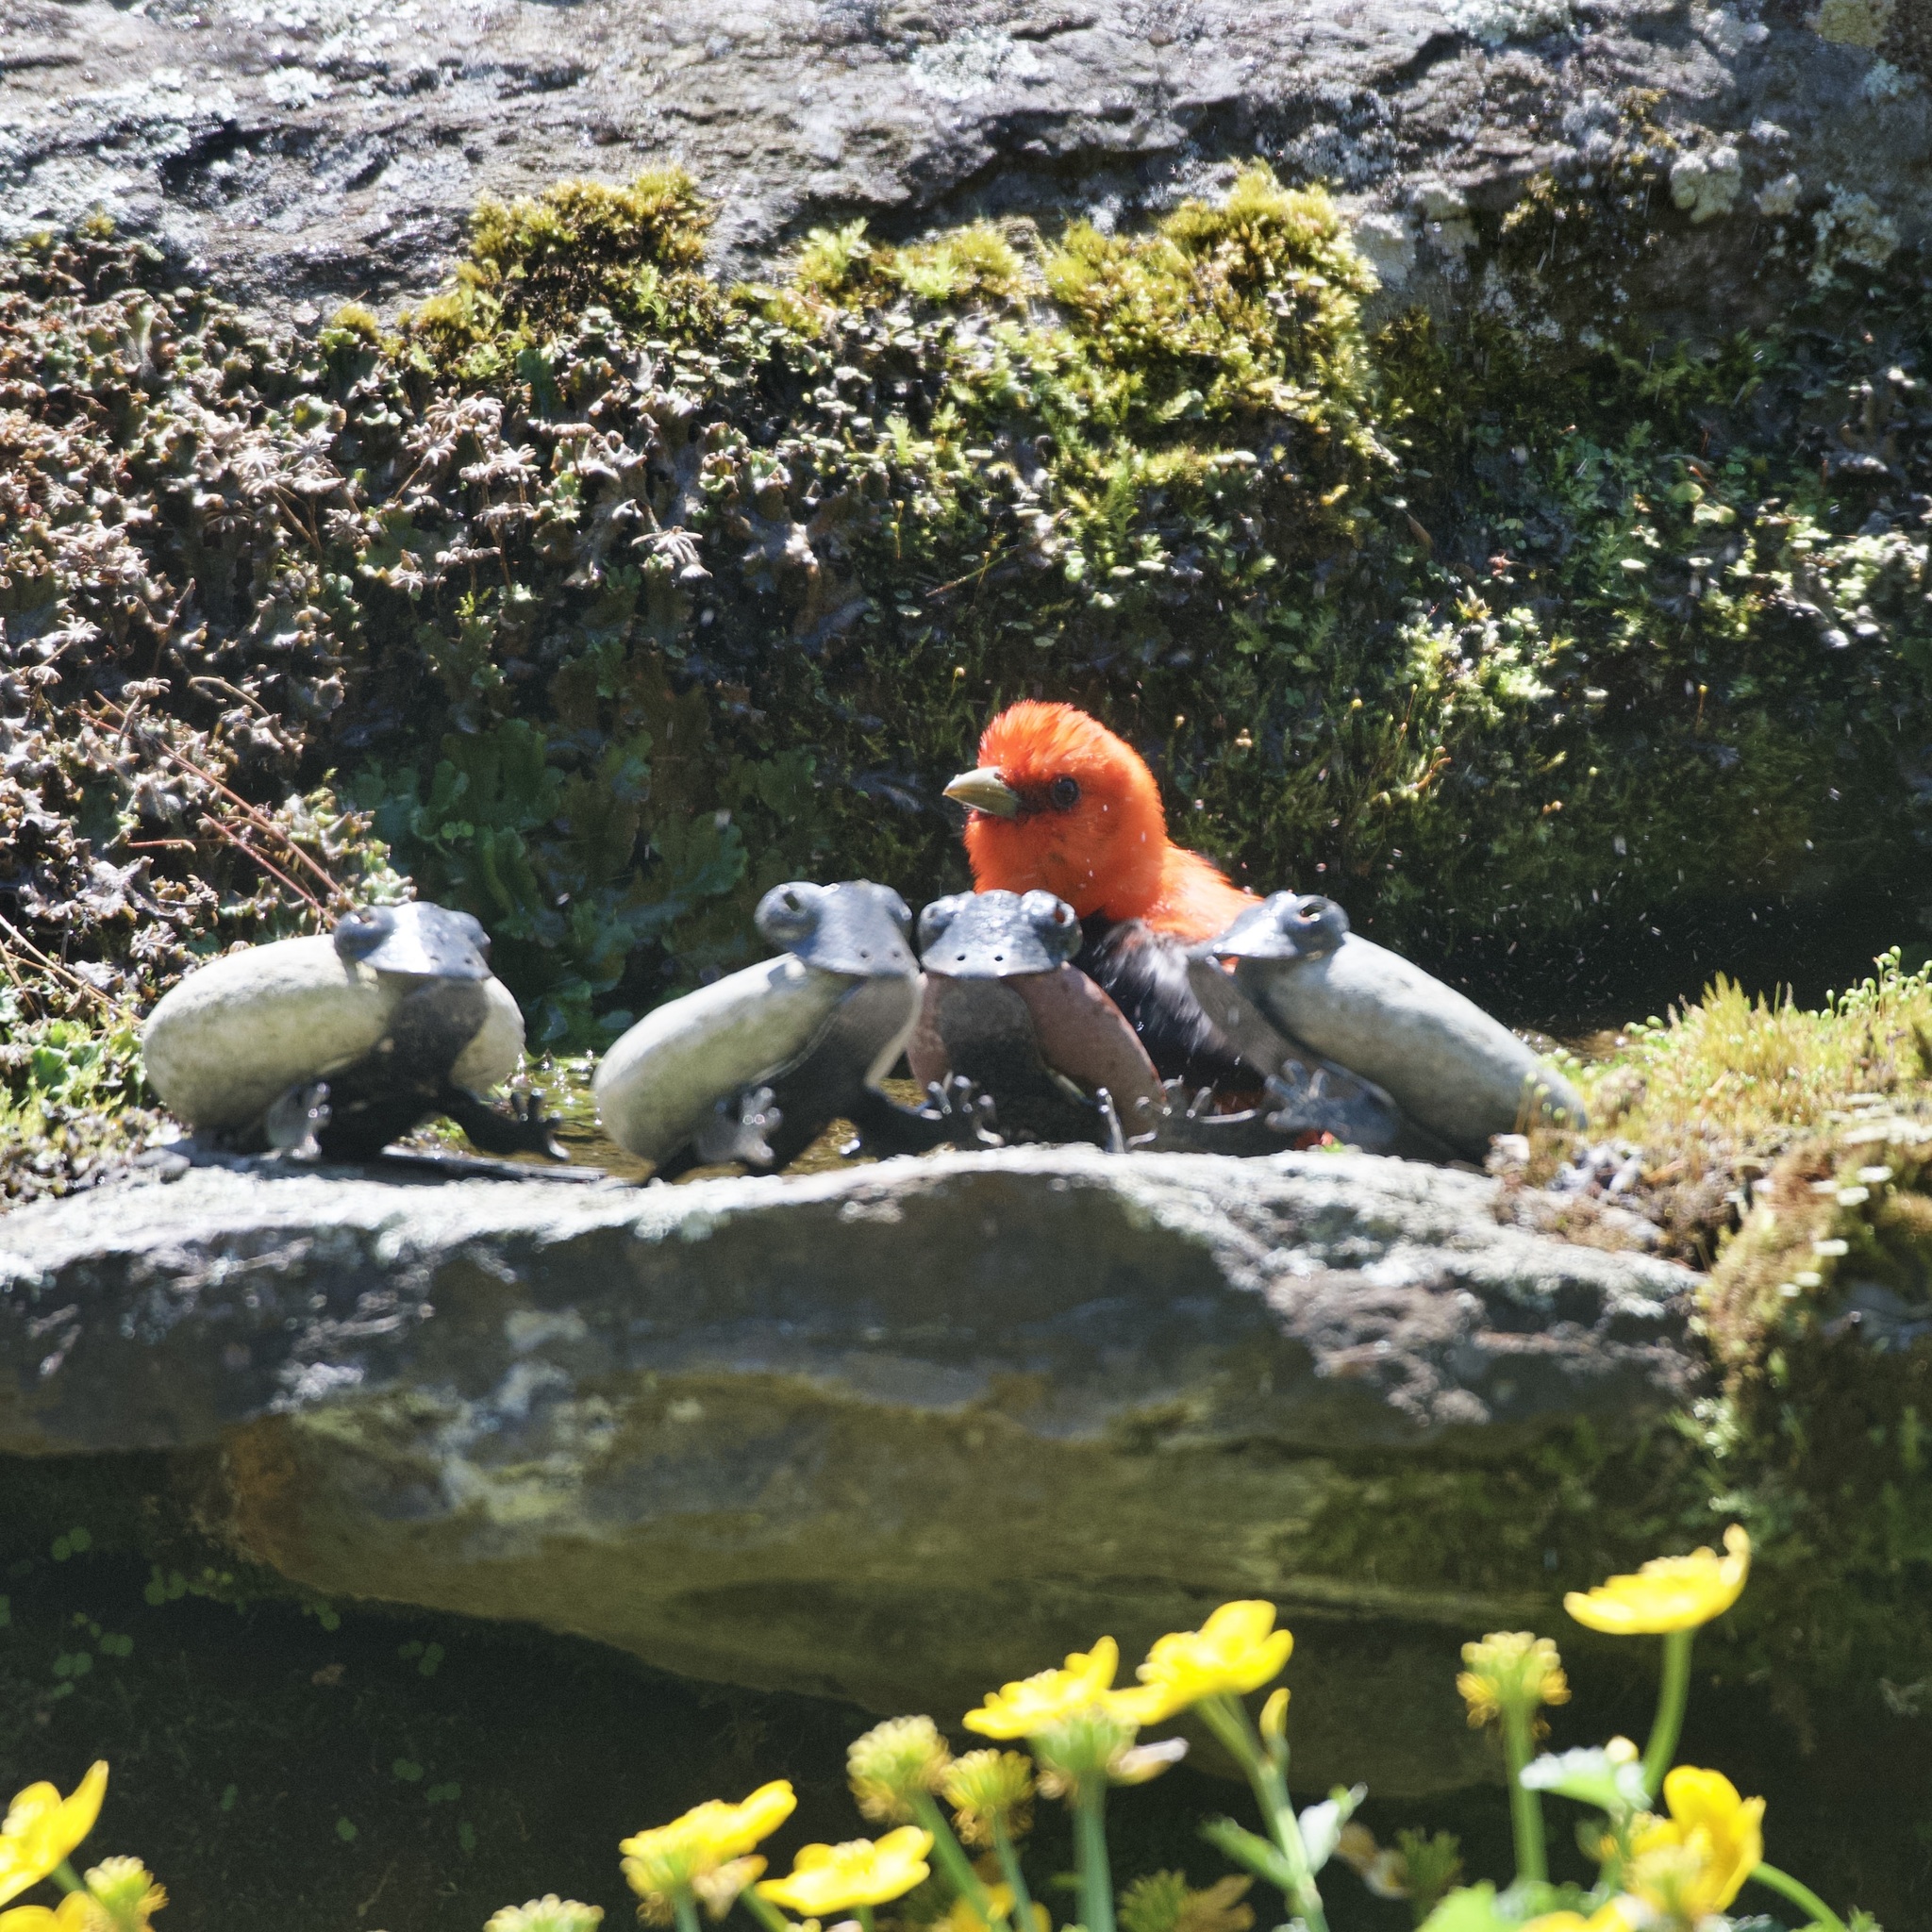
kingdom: Animalia
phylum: Chordata
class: Aves
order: Passeriformes
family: Cardinalidae
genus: Piranga
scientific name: Piranga olivacea
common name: Scarlet tanager
